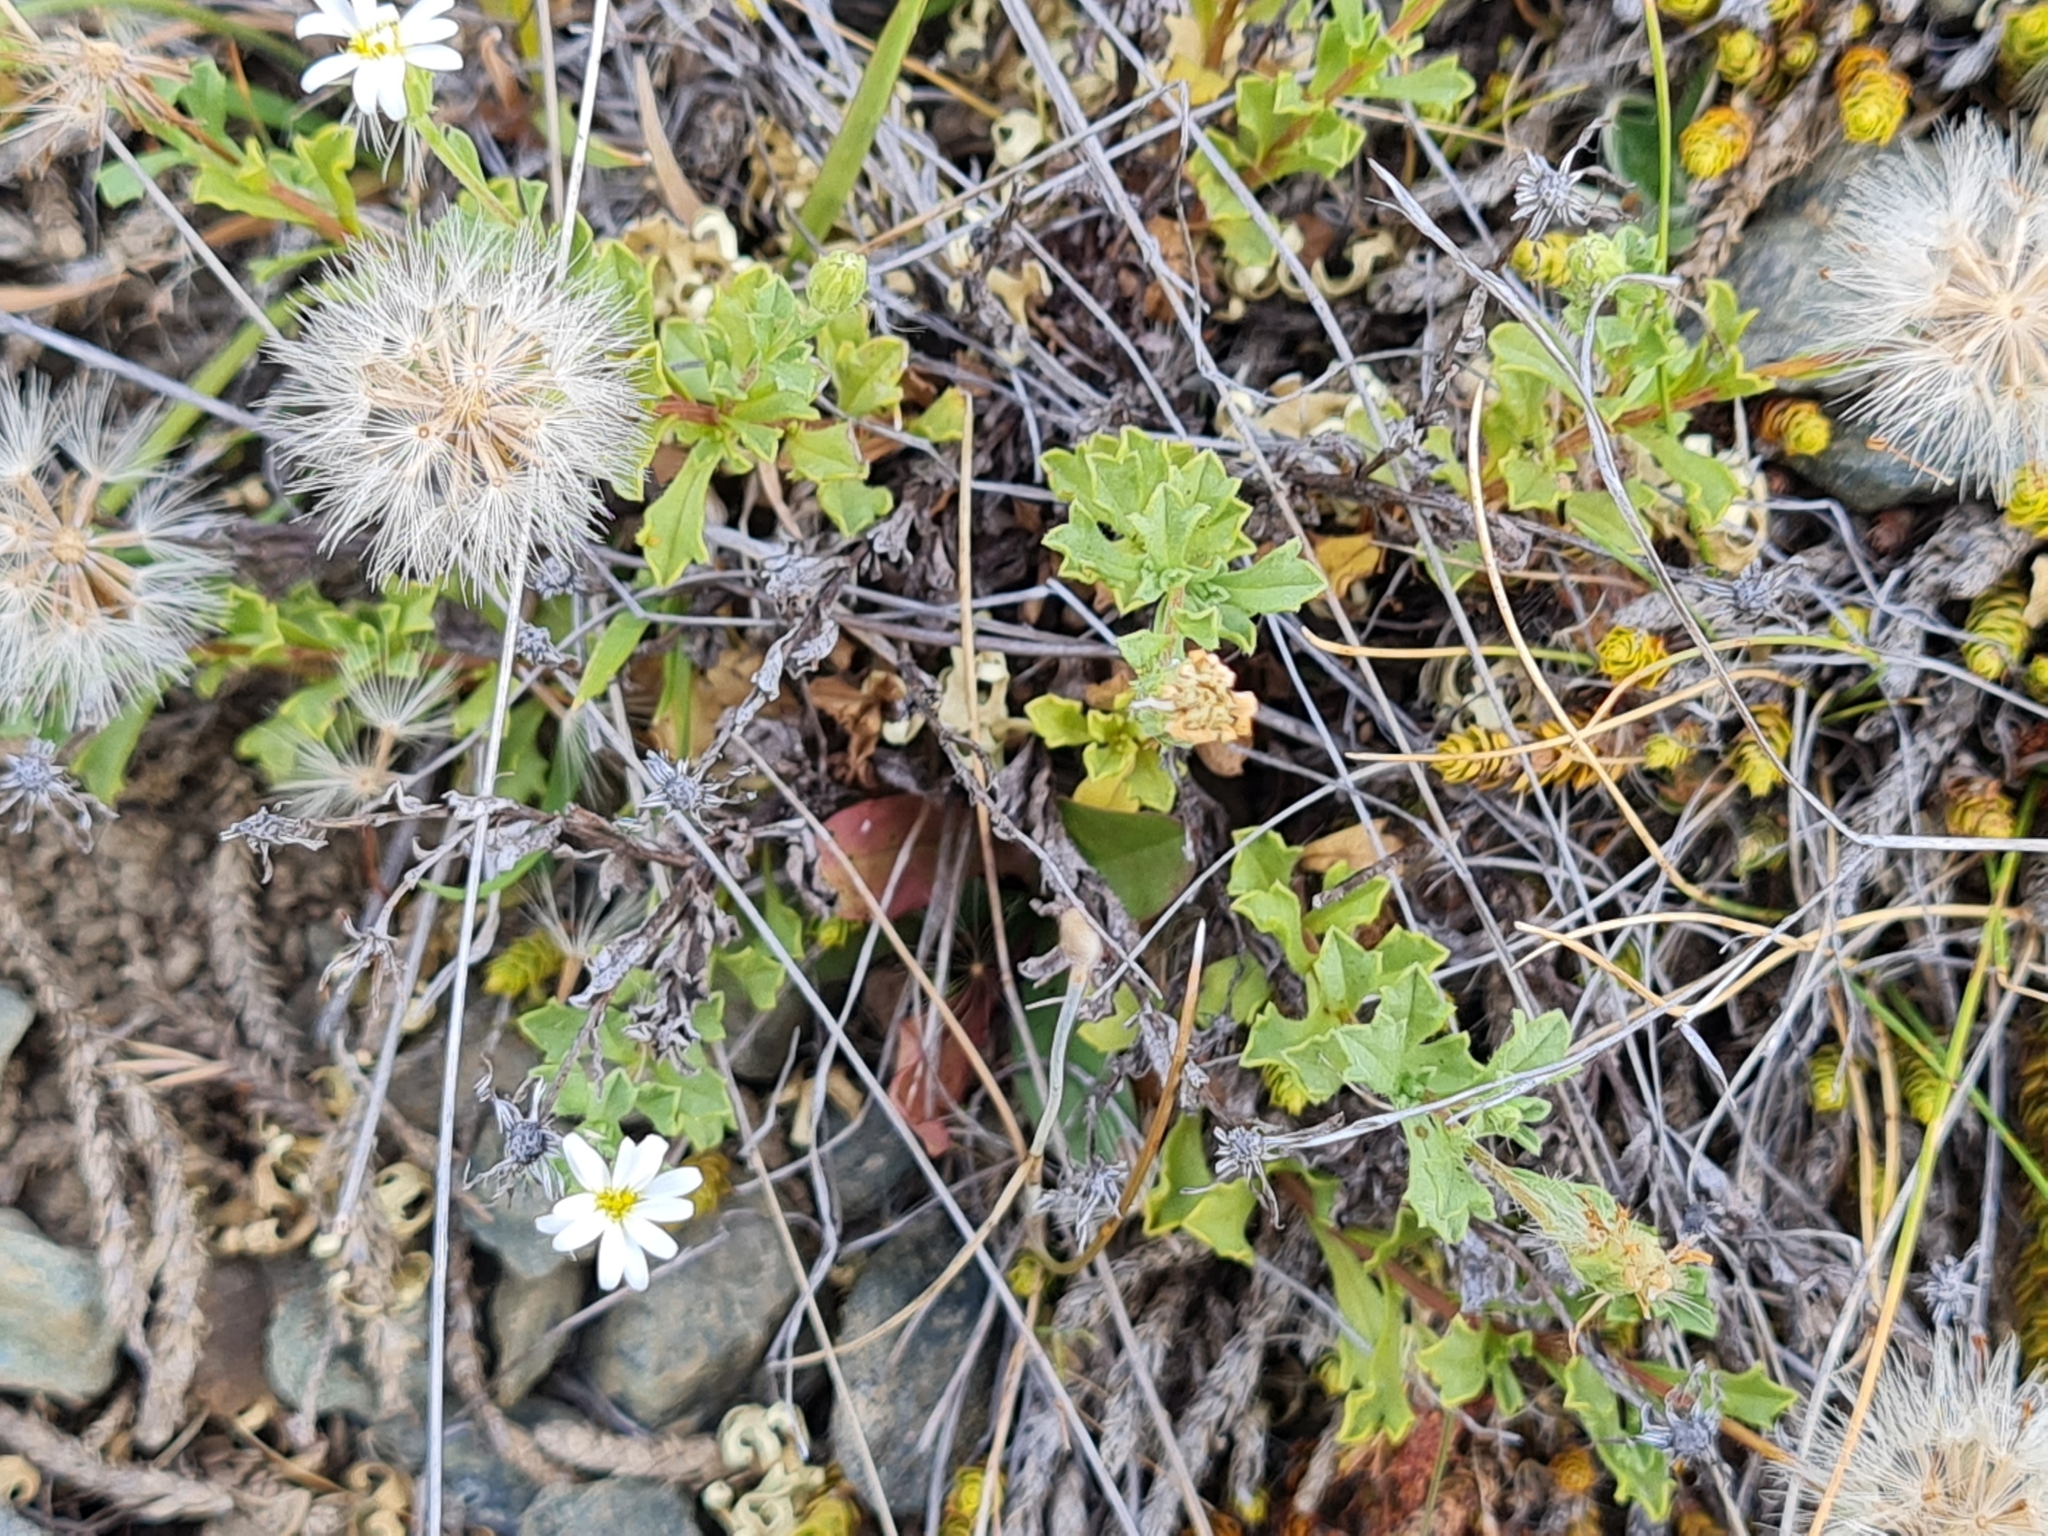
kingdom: Plantae
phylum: Tracheophyta
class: Magnoliopsida
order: Asterales
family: Asteraceae
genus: Vittadinia
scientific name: Vittadinia australis
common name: White fuzzweed
